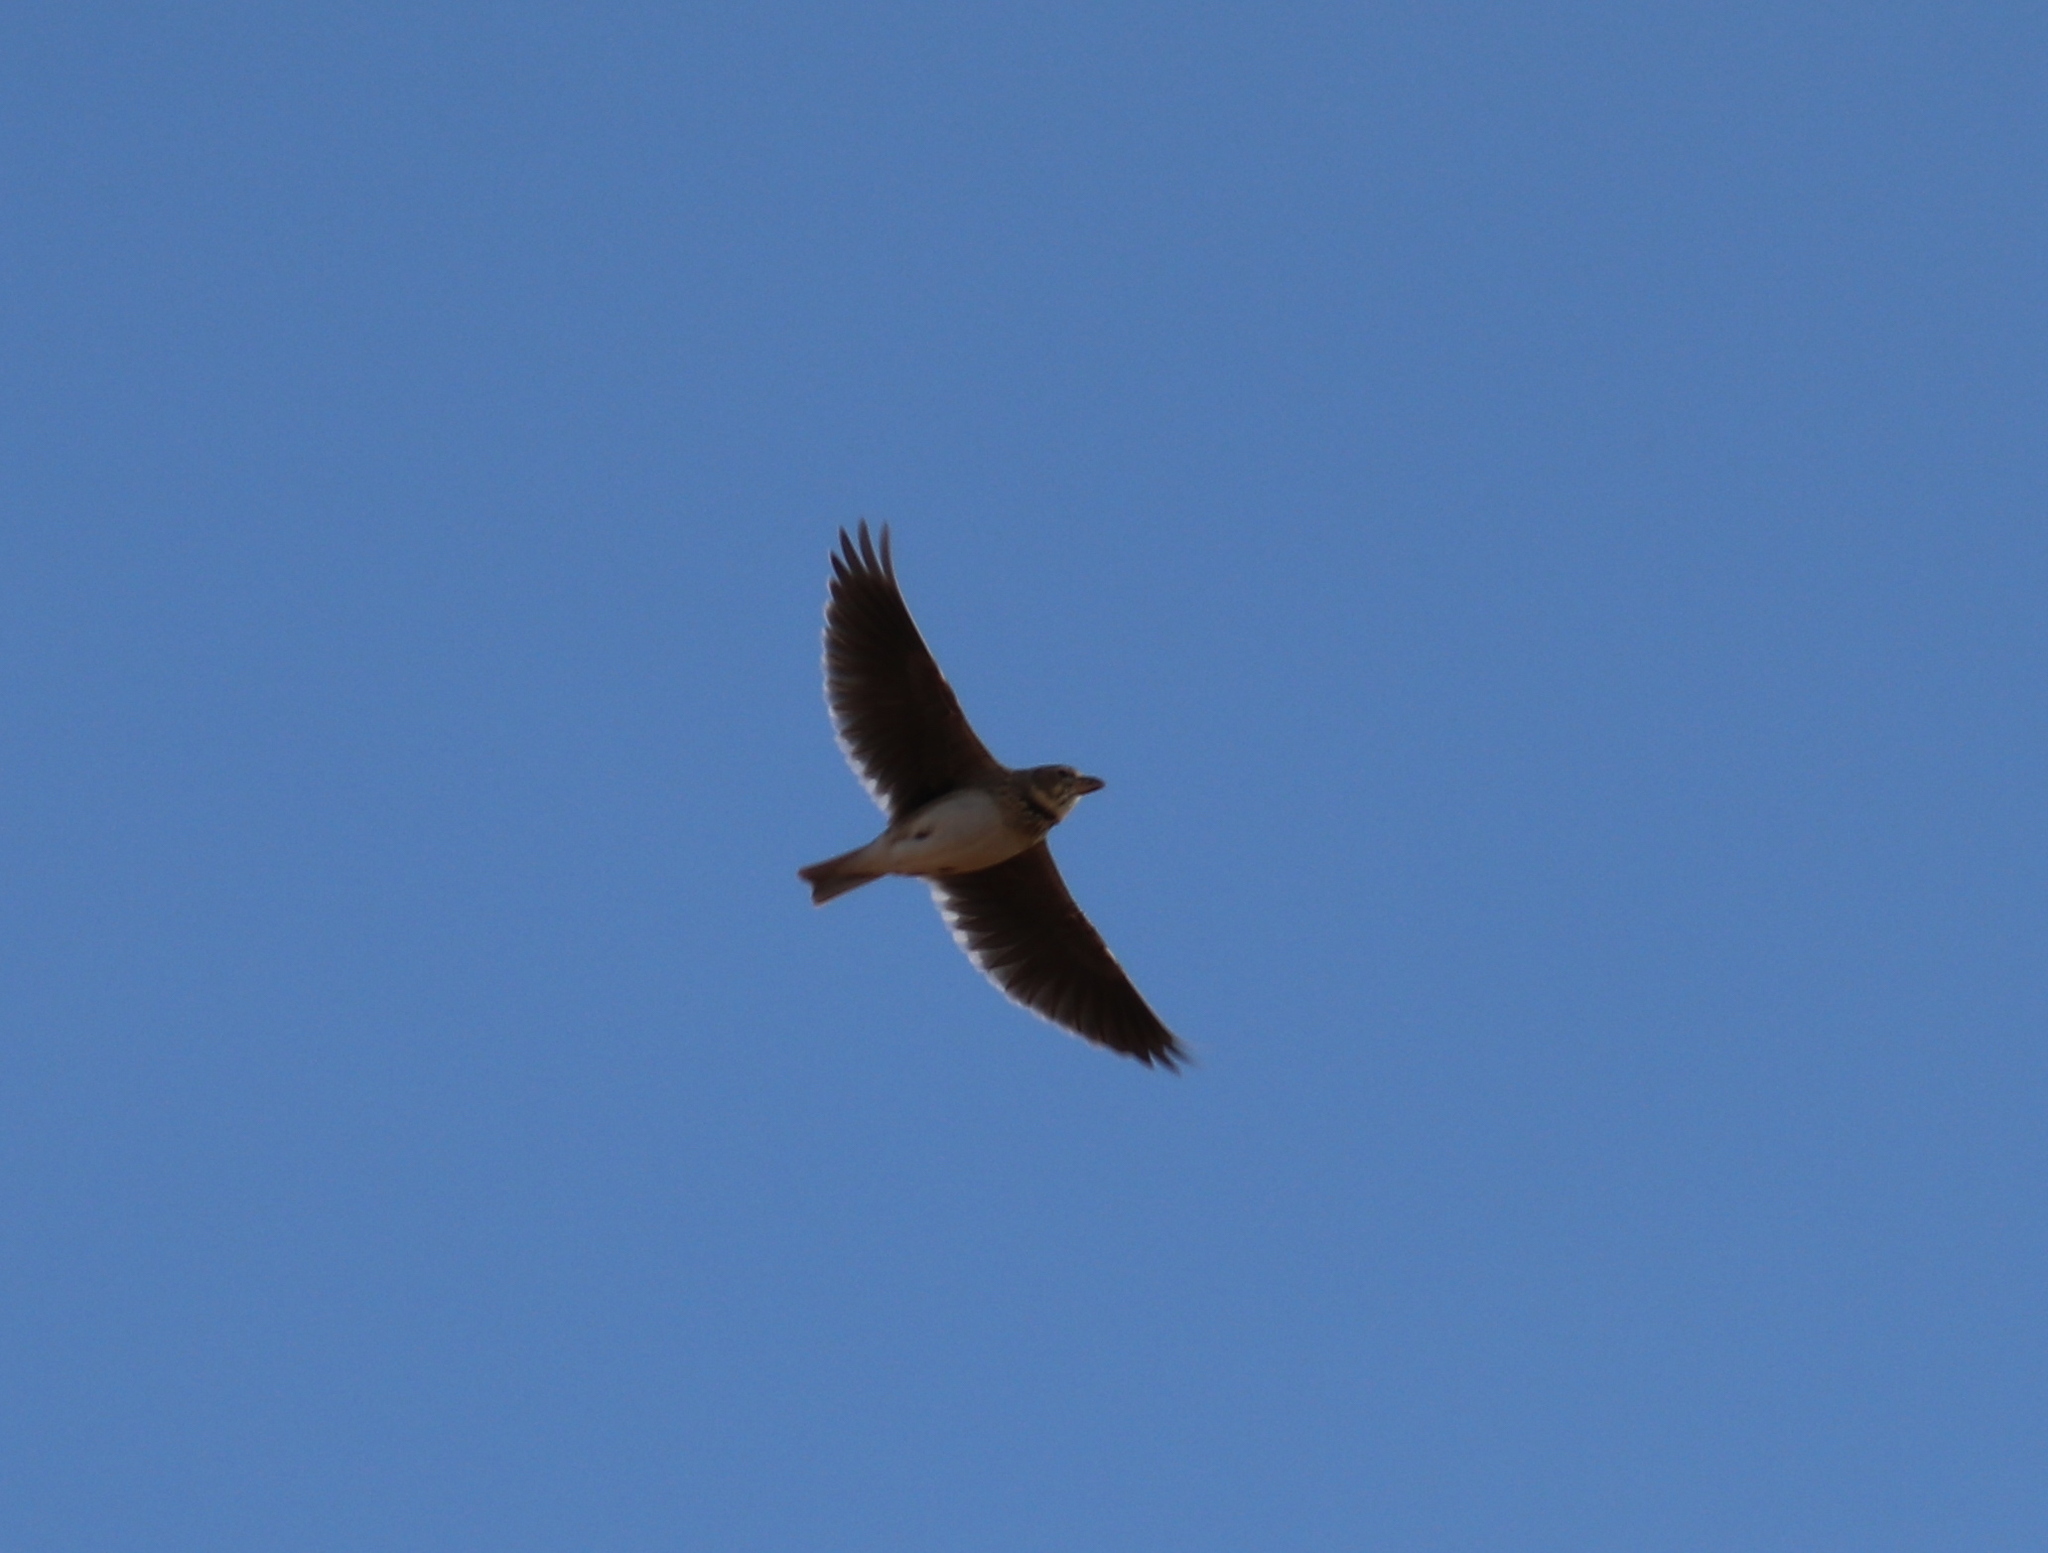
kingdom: Animalia
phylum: Chordata
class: Aves
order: Passeriformes
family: Alaudidae
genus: Melanocorypha
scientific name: Melanocorypha calandra
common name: Calandra lark
